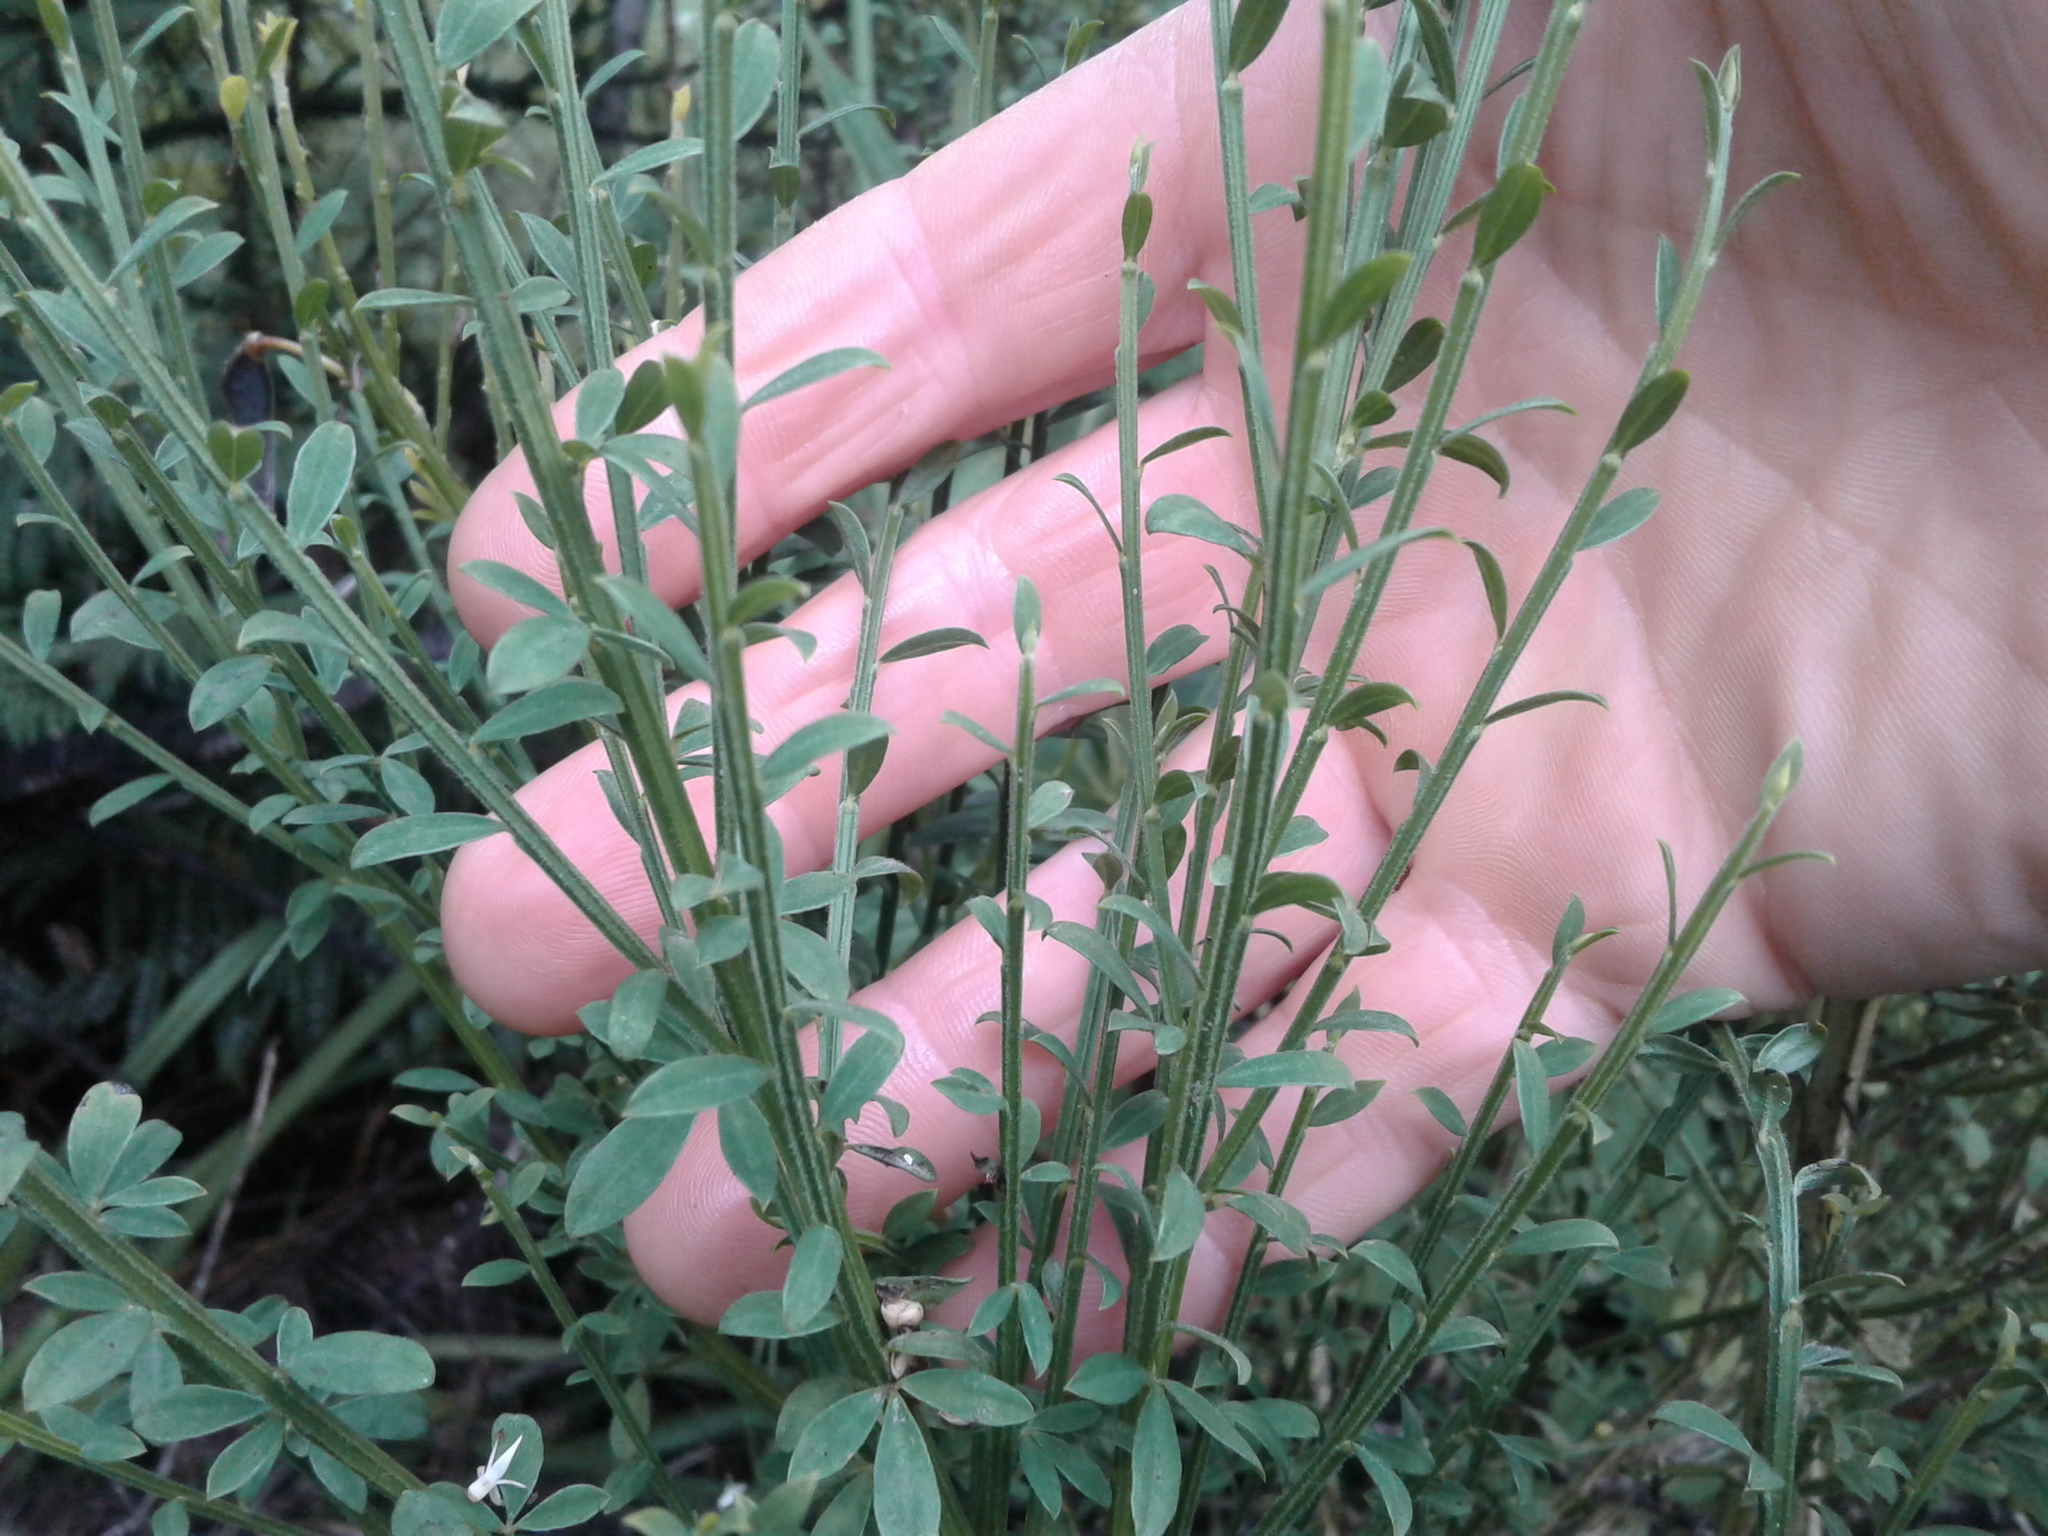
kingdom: Plantae
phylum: Tracheophyta
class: Magnoliopsida
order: Fabales
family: Fabaceae
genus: Cytisus
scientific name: Cytisus scoparius
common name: Scotch broom
